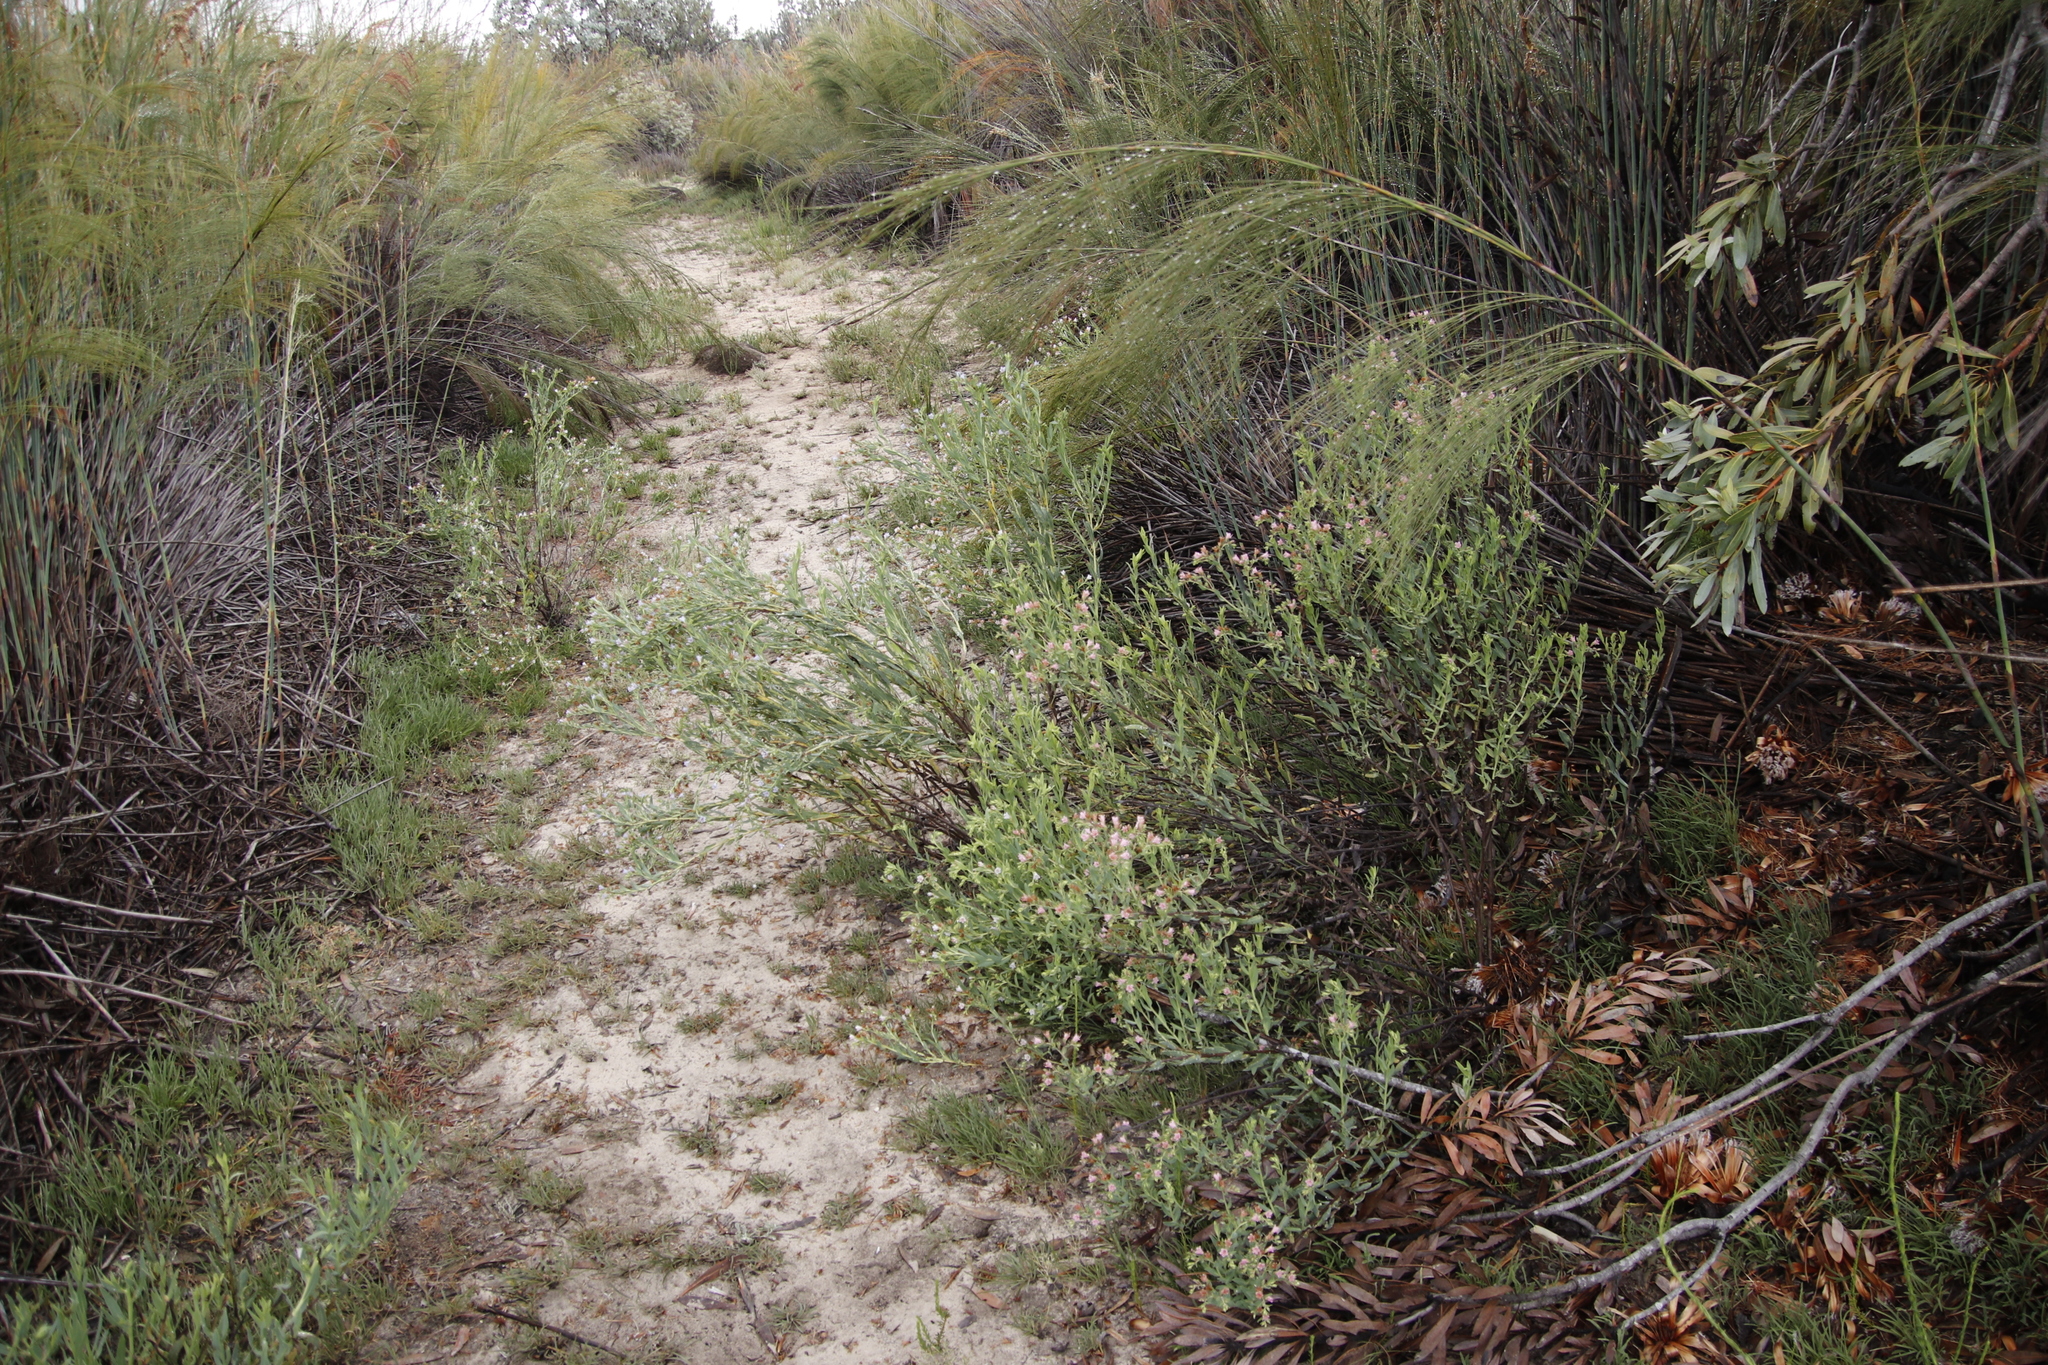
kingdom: Plantae
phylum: Tracheophyta
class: Magnoliopsida
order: Boraginales
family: Boraginaceae
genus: Lobostemon
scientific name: Lobostemon glaucophyllus
